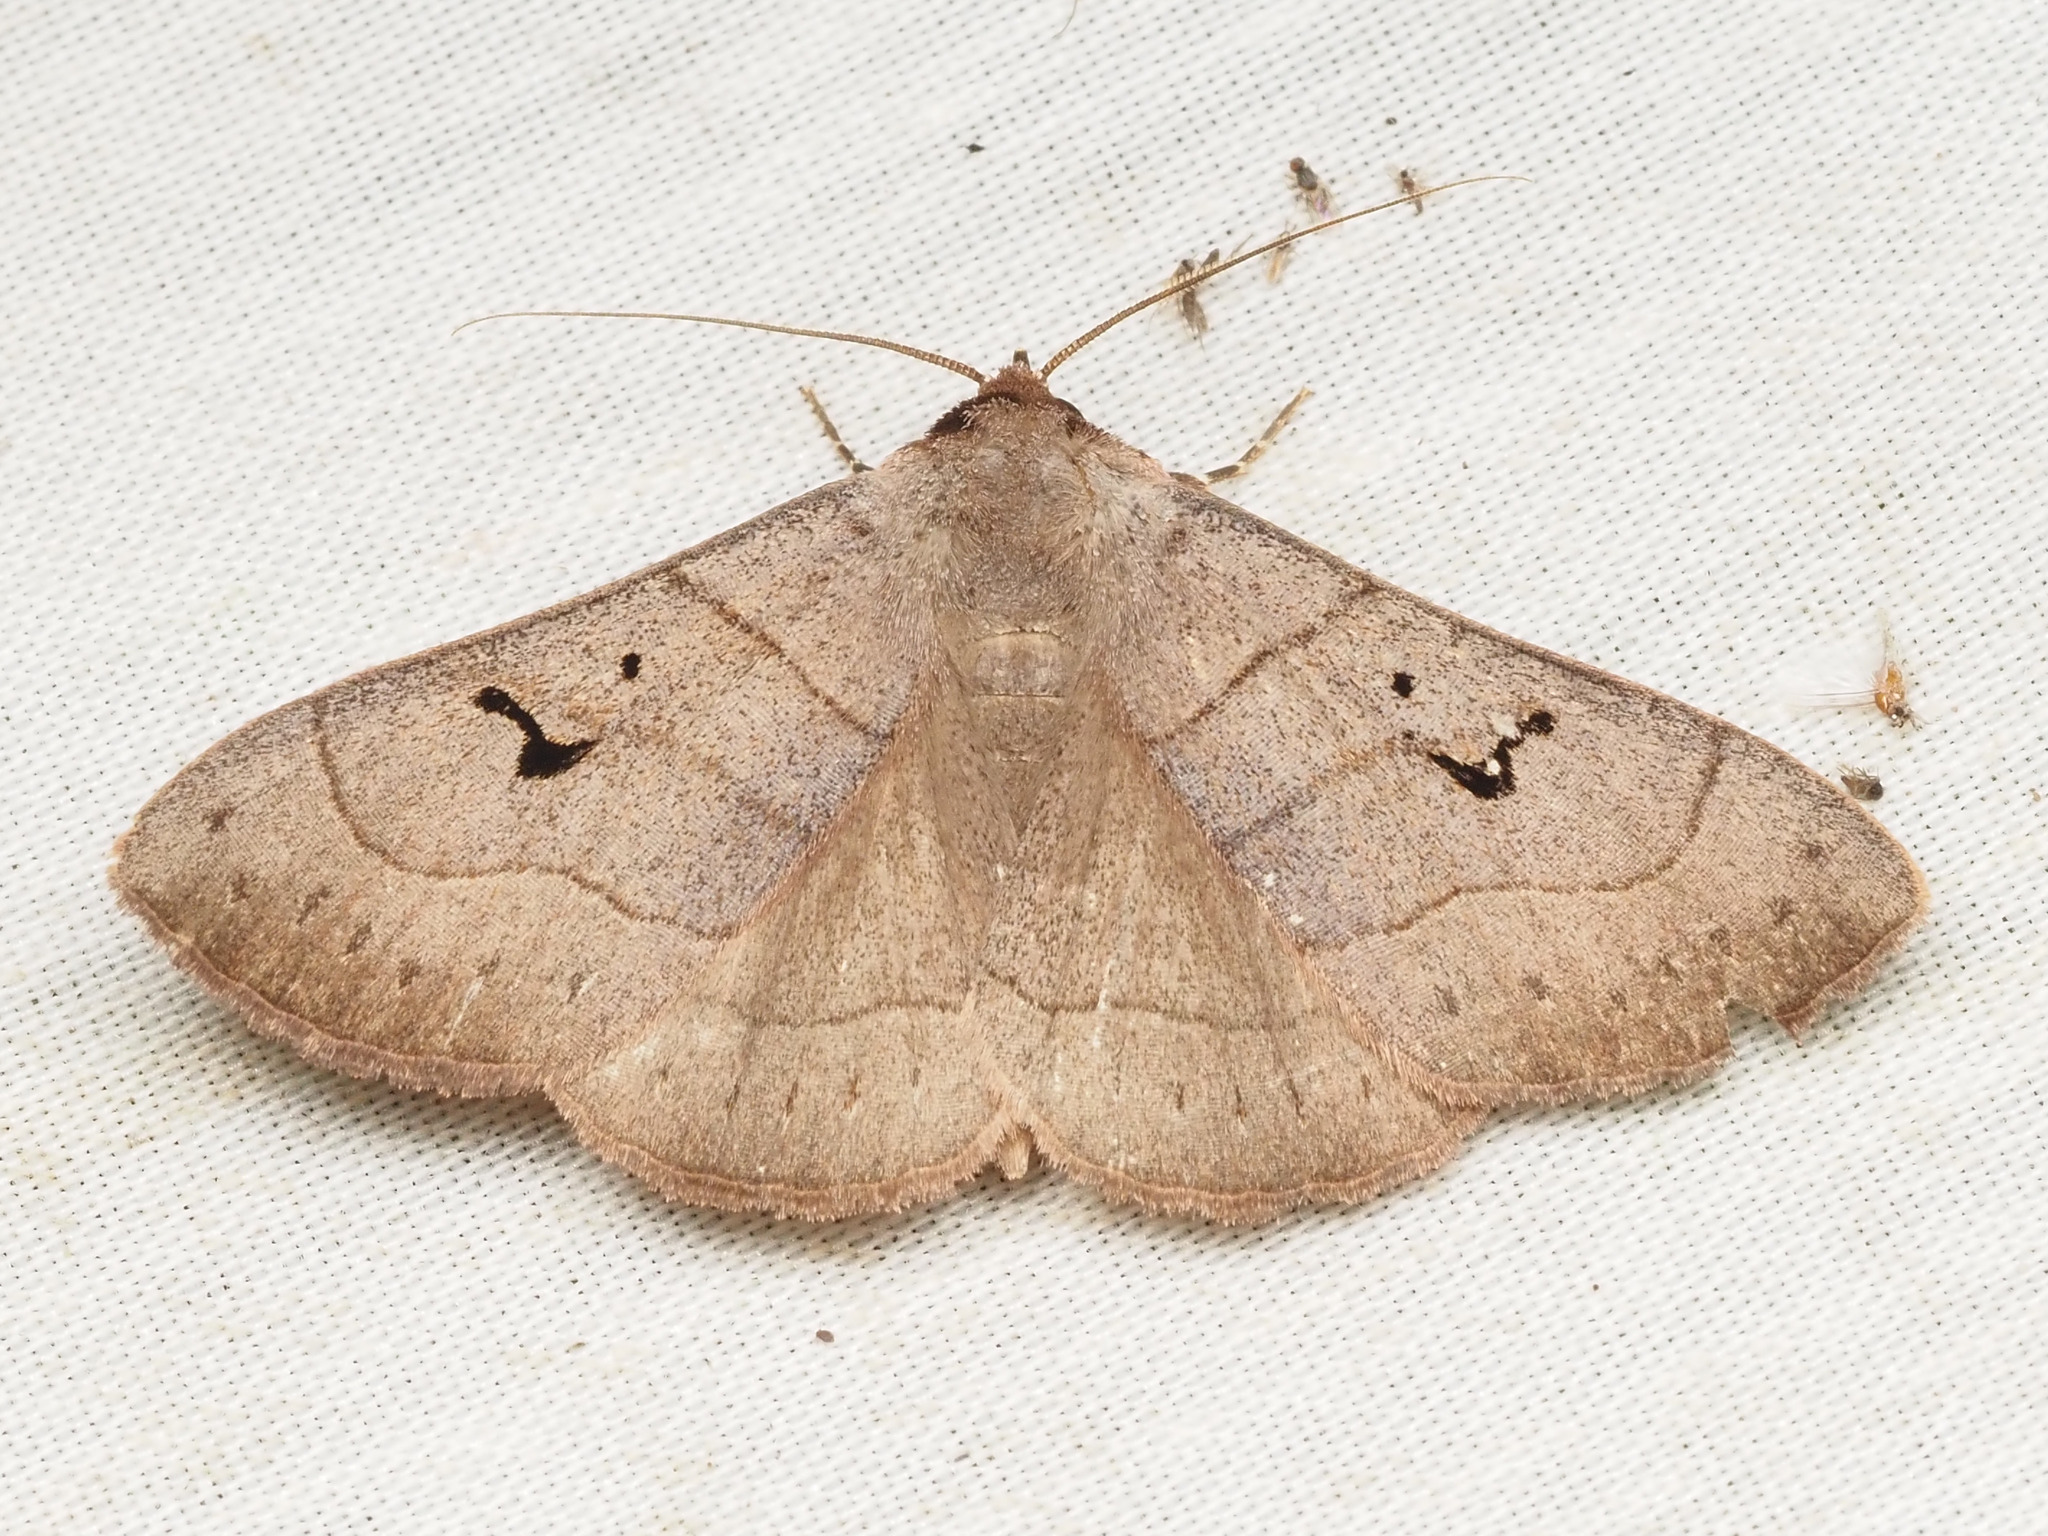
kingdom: Animalia
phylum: Arthropoda
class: Insecta
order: Lepidoptera
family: Erebidae
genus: Panopoda
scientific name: Panopoda carneicosta
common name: Brown panopoda moth
